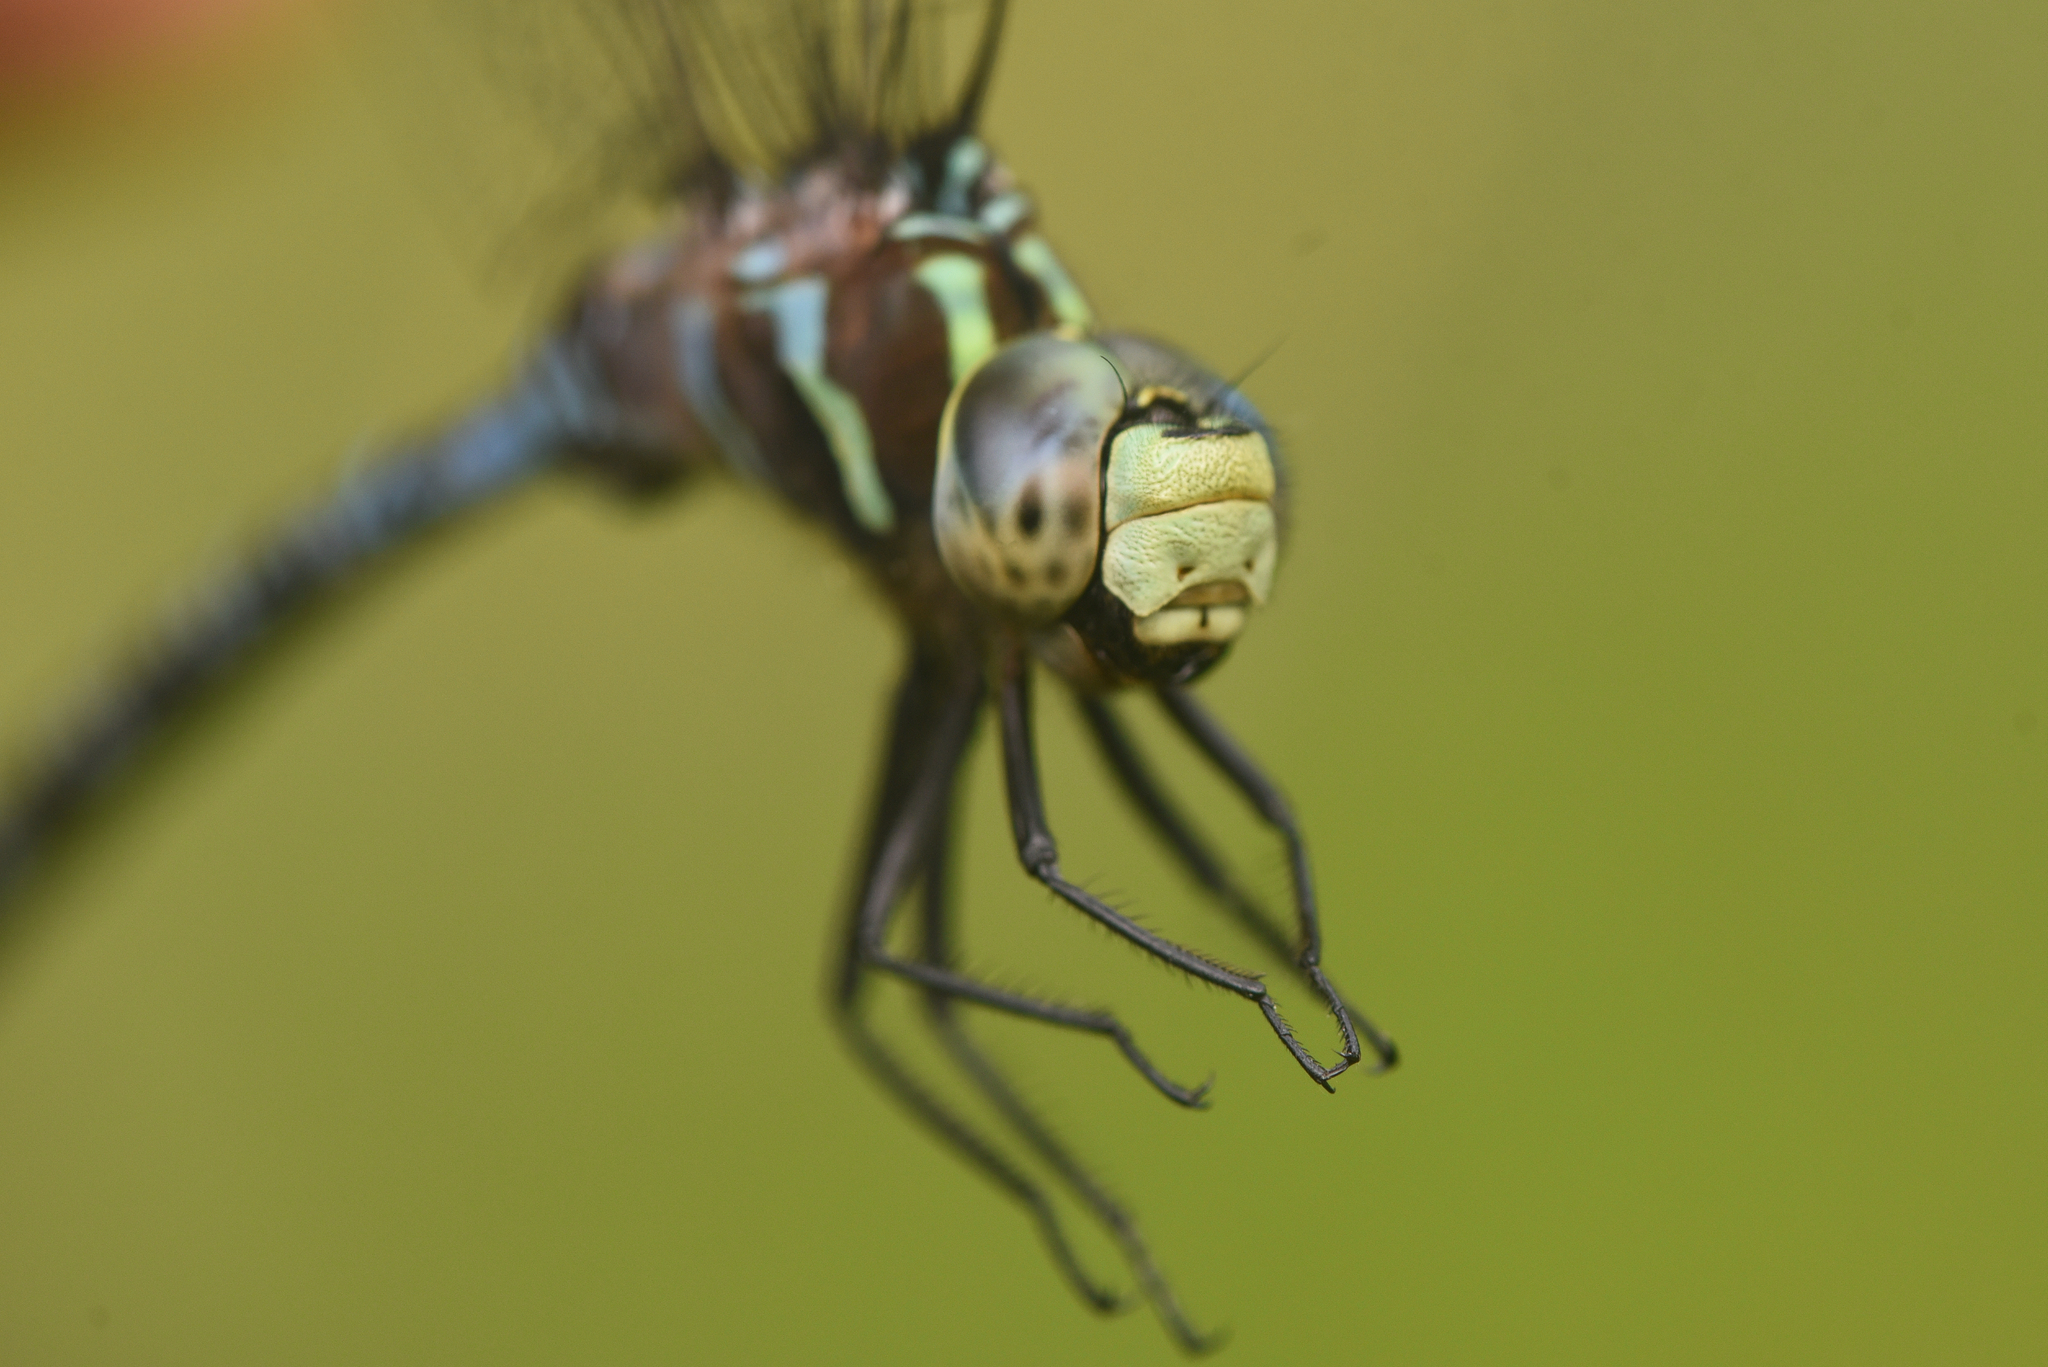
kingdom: Animalia
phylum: Arthropoda
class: Insecta
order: Odonata
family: Aeshnidae
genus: Aeshna
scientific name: Aeshna constricta
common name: Lance-tipped darner
